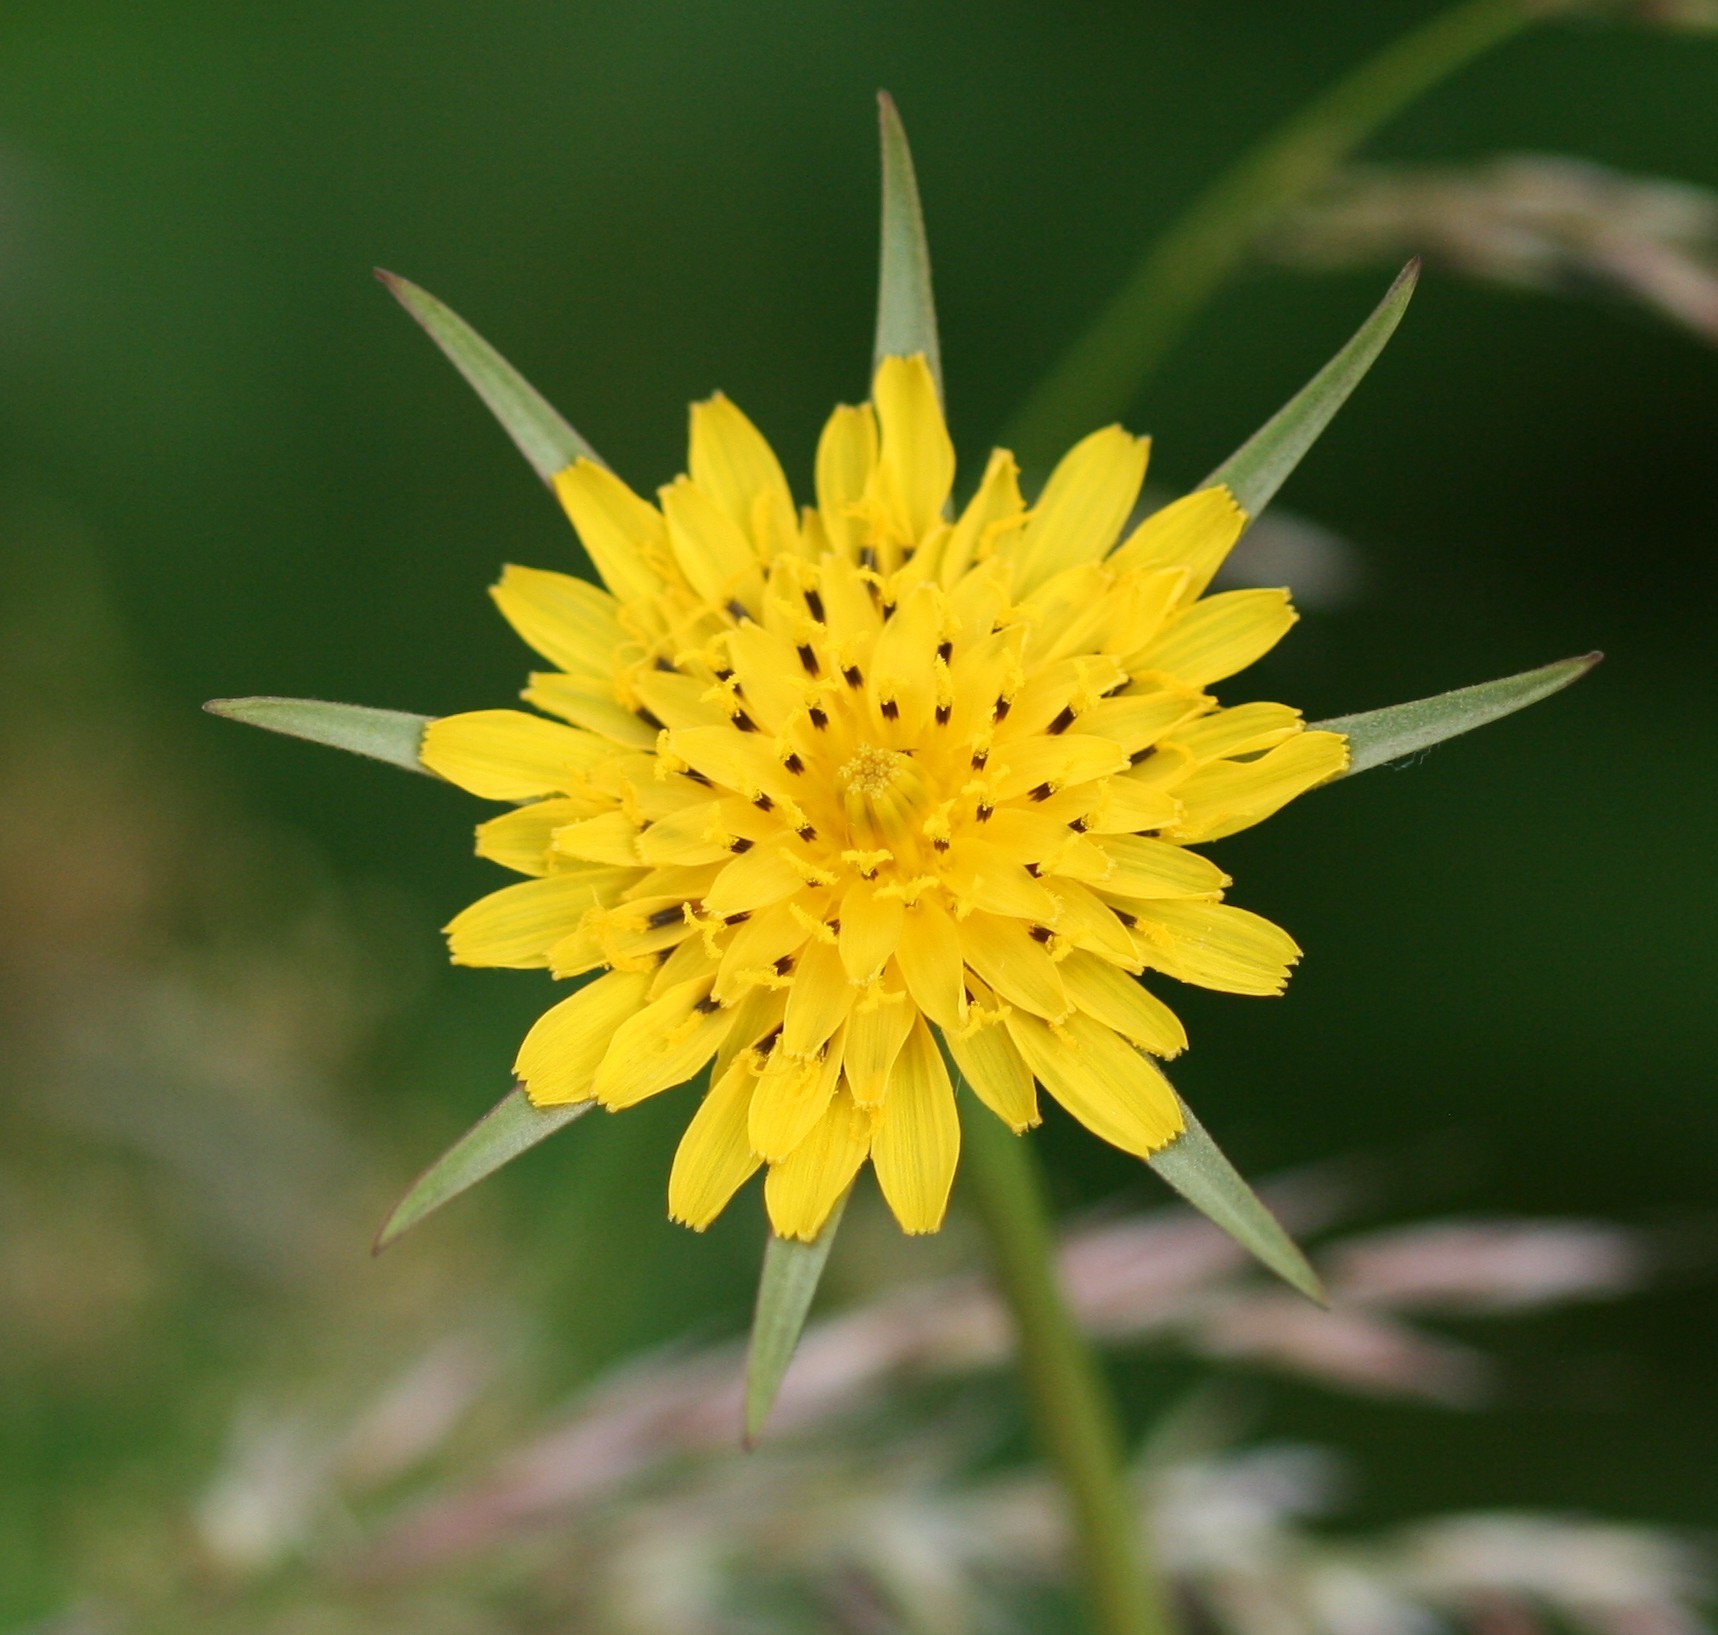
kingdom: Plantae
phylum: Tracheophyta
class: Magnoliopsida
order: Asterales
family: Asteraceae
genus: Tragopogon
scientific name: Tragopogon pratensis
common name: Goat's-beard
